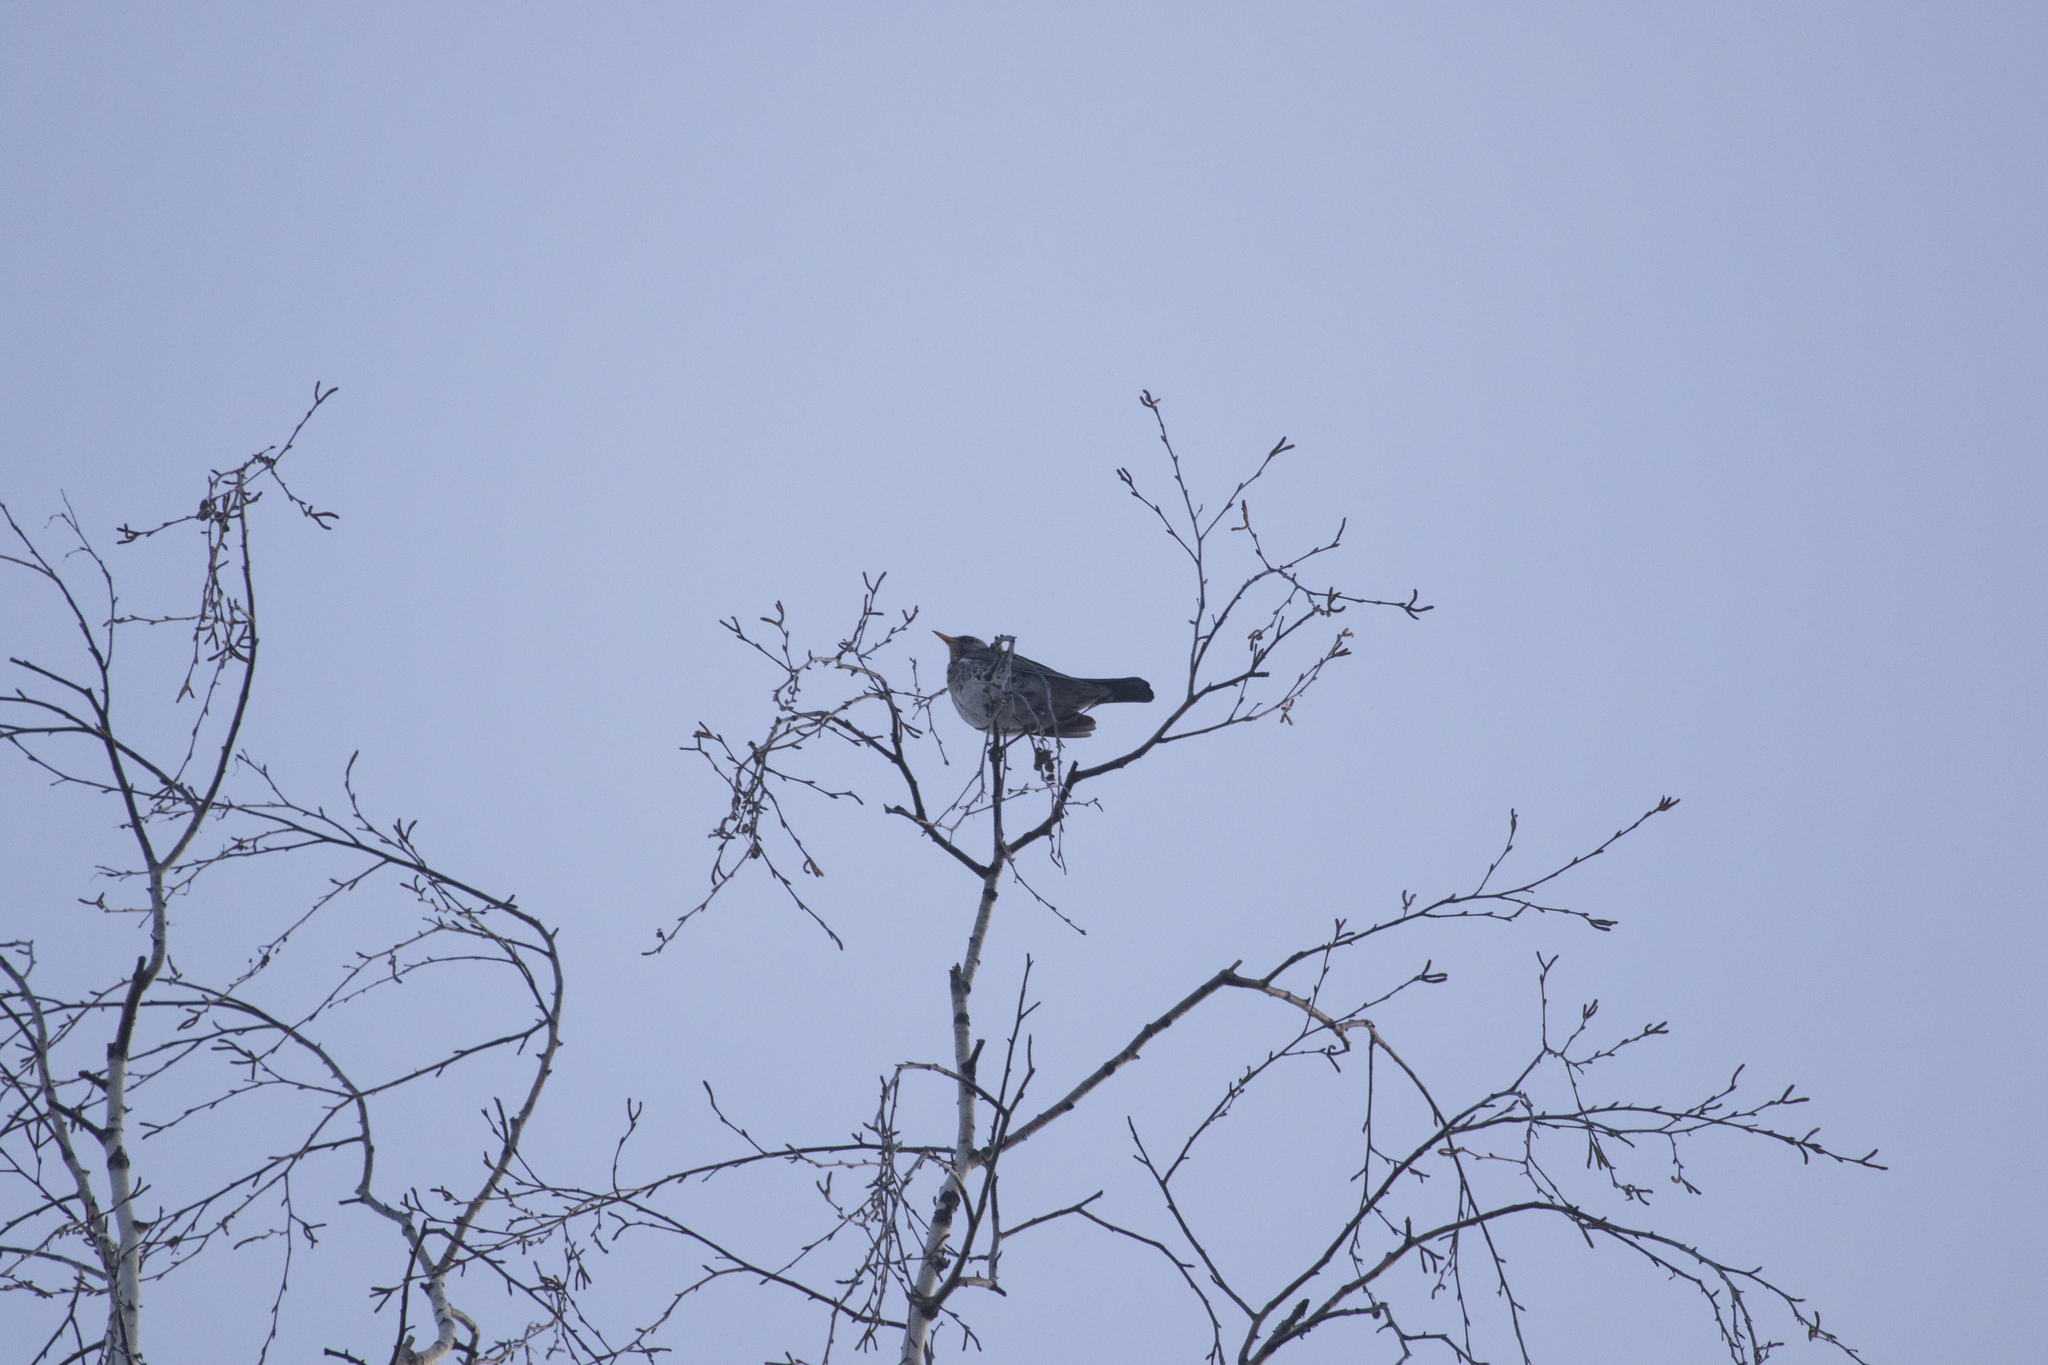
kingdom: Animalia
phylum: Chordata
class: Aves
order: Passeriformes
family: Turdidae
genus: Turdus
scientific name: Turdus pilaris
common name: Fieldfare
